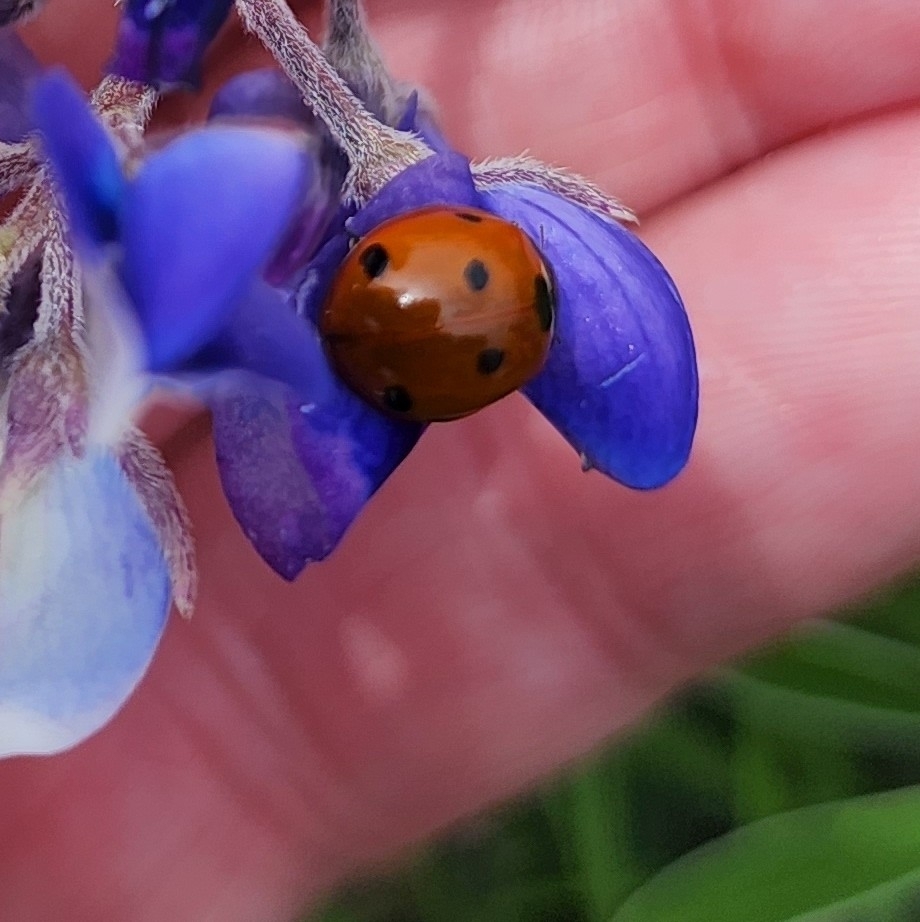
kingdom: Animalia
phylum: Arthropoda
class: Insecta
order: Coleoptera
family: Coccinellidae
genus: Coccinella
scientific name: Coccinella septempunctata
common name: Sevenspotted lady beetle
